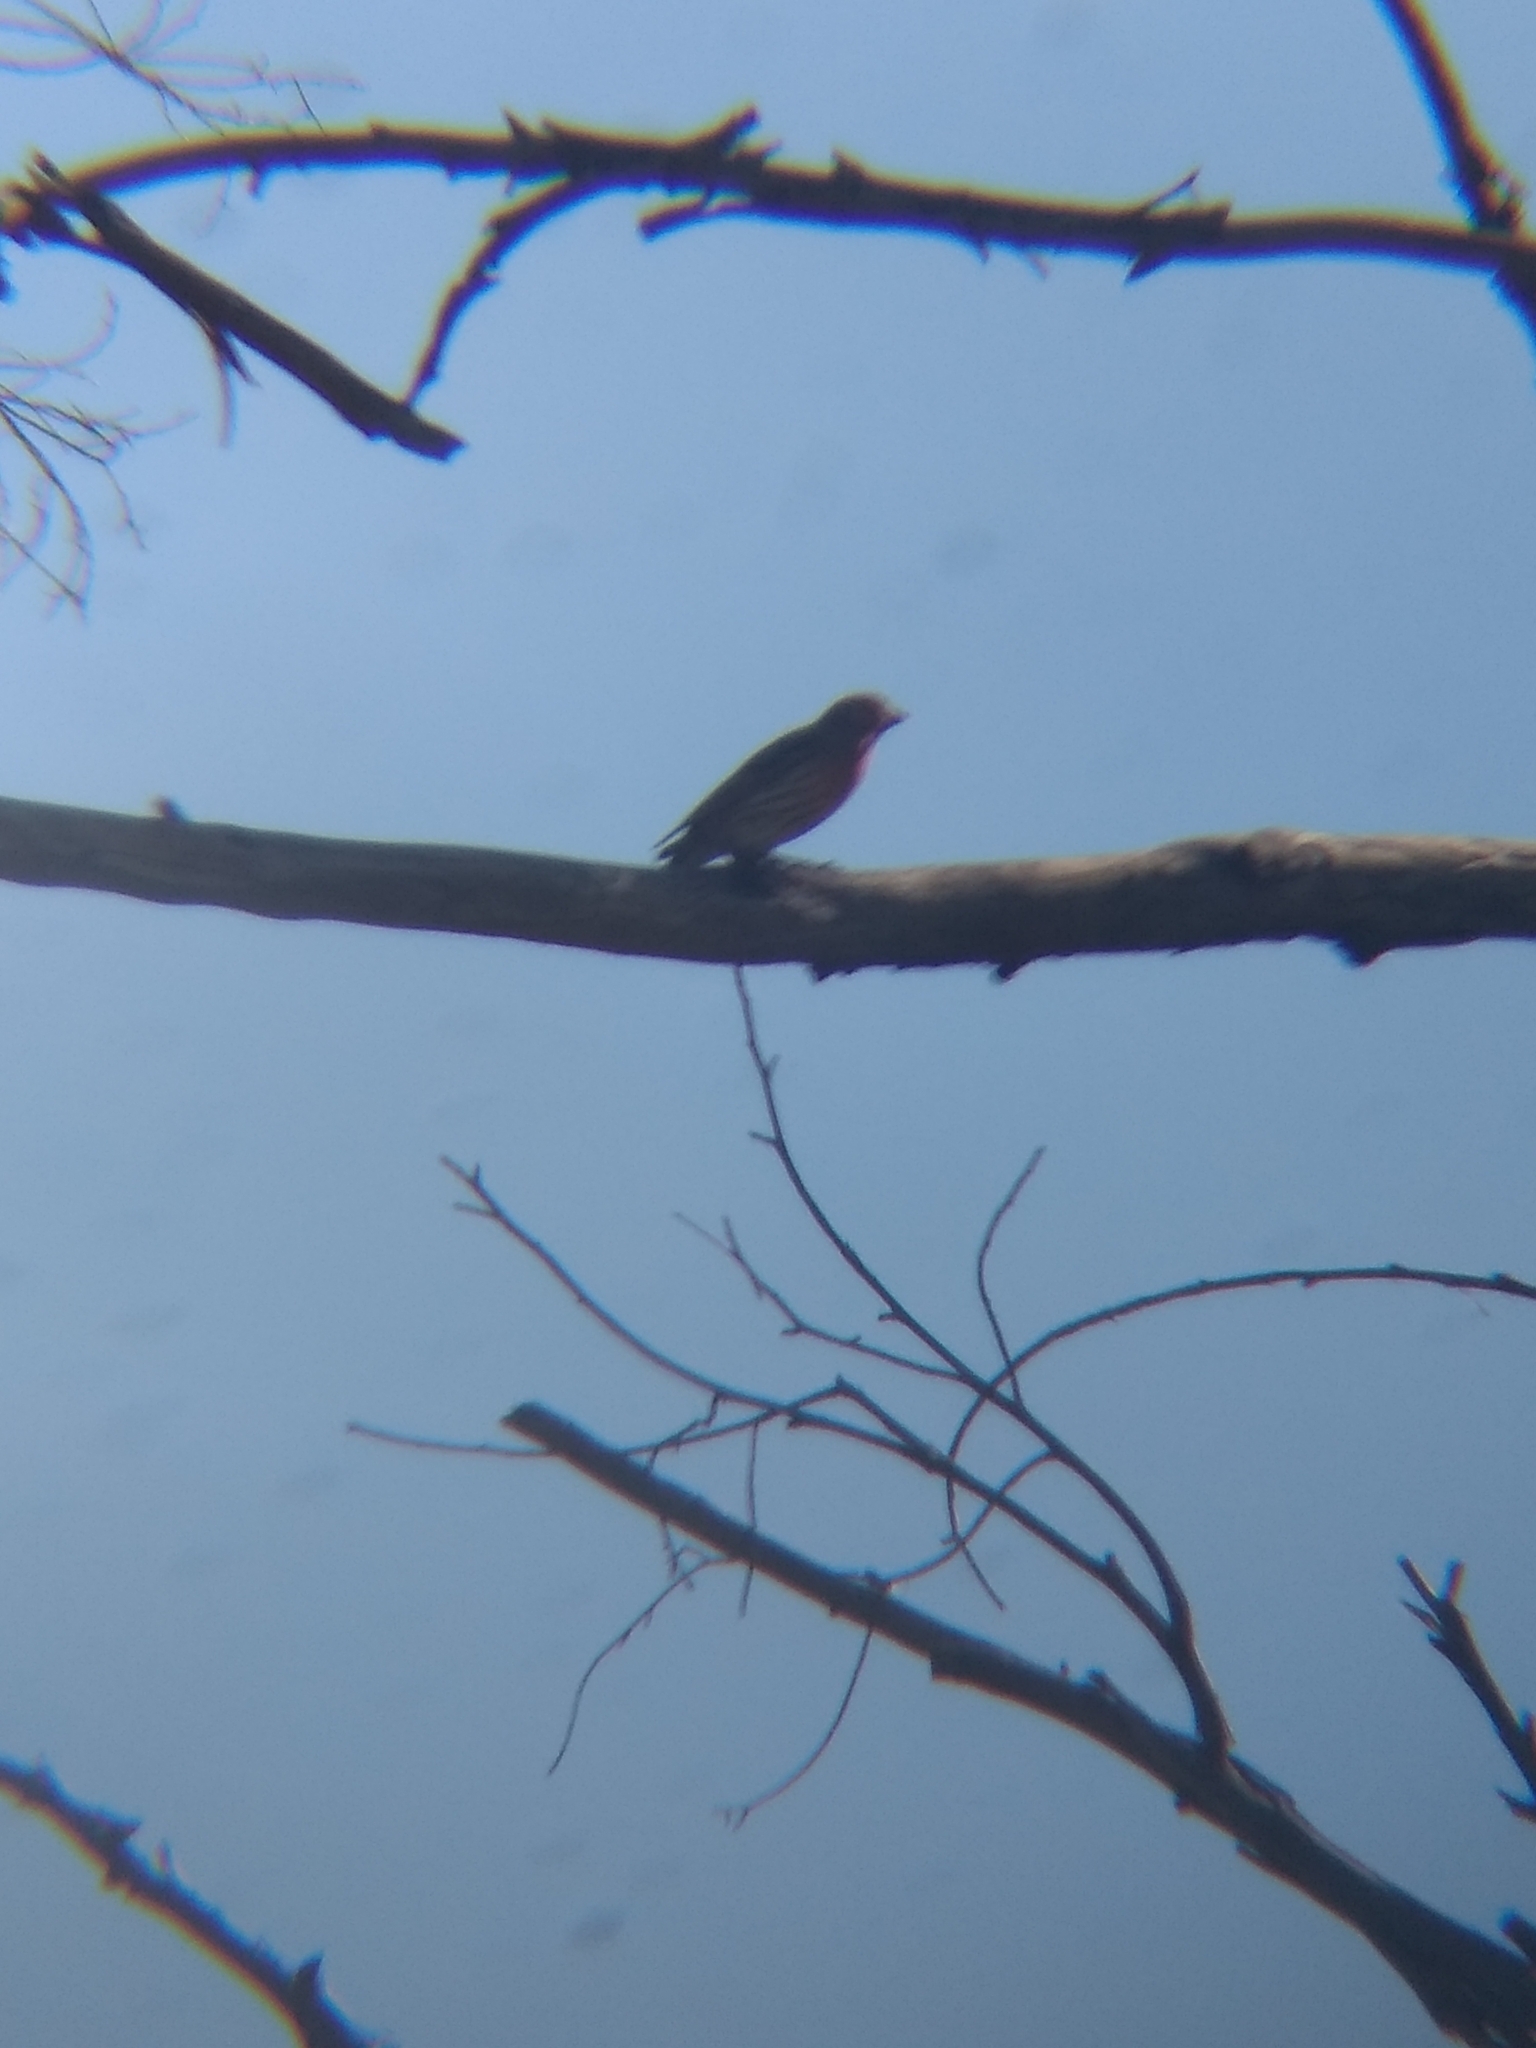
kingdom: Animalia
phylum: Chordata
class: Aves
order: Passeriformes
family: Fringillidae
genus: Haemorhous
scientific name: Haemorhous mexicanus
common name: House finch
